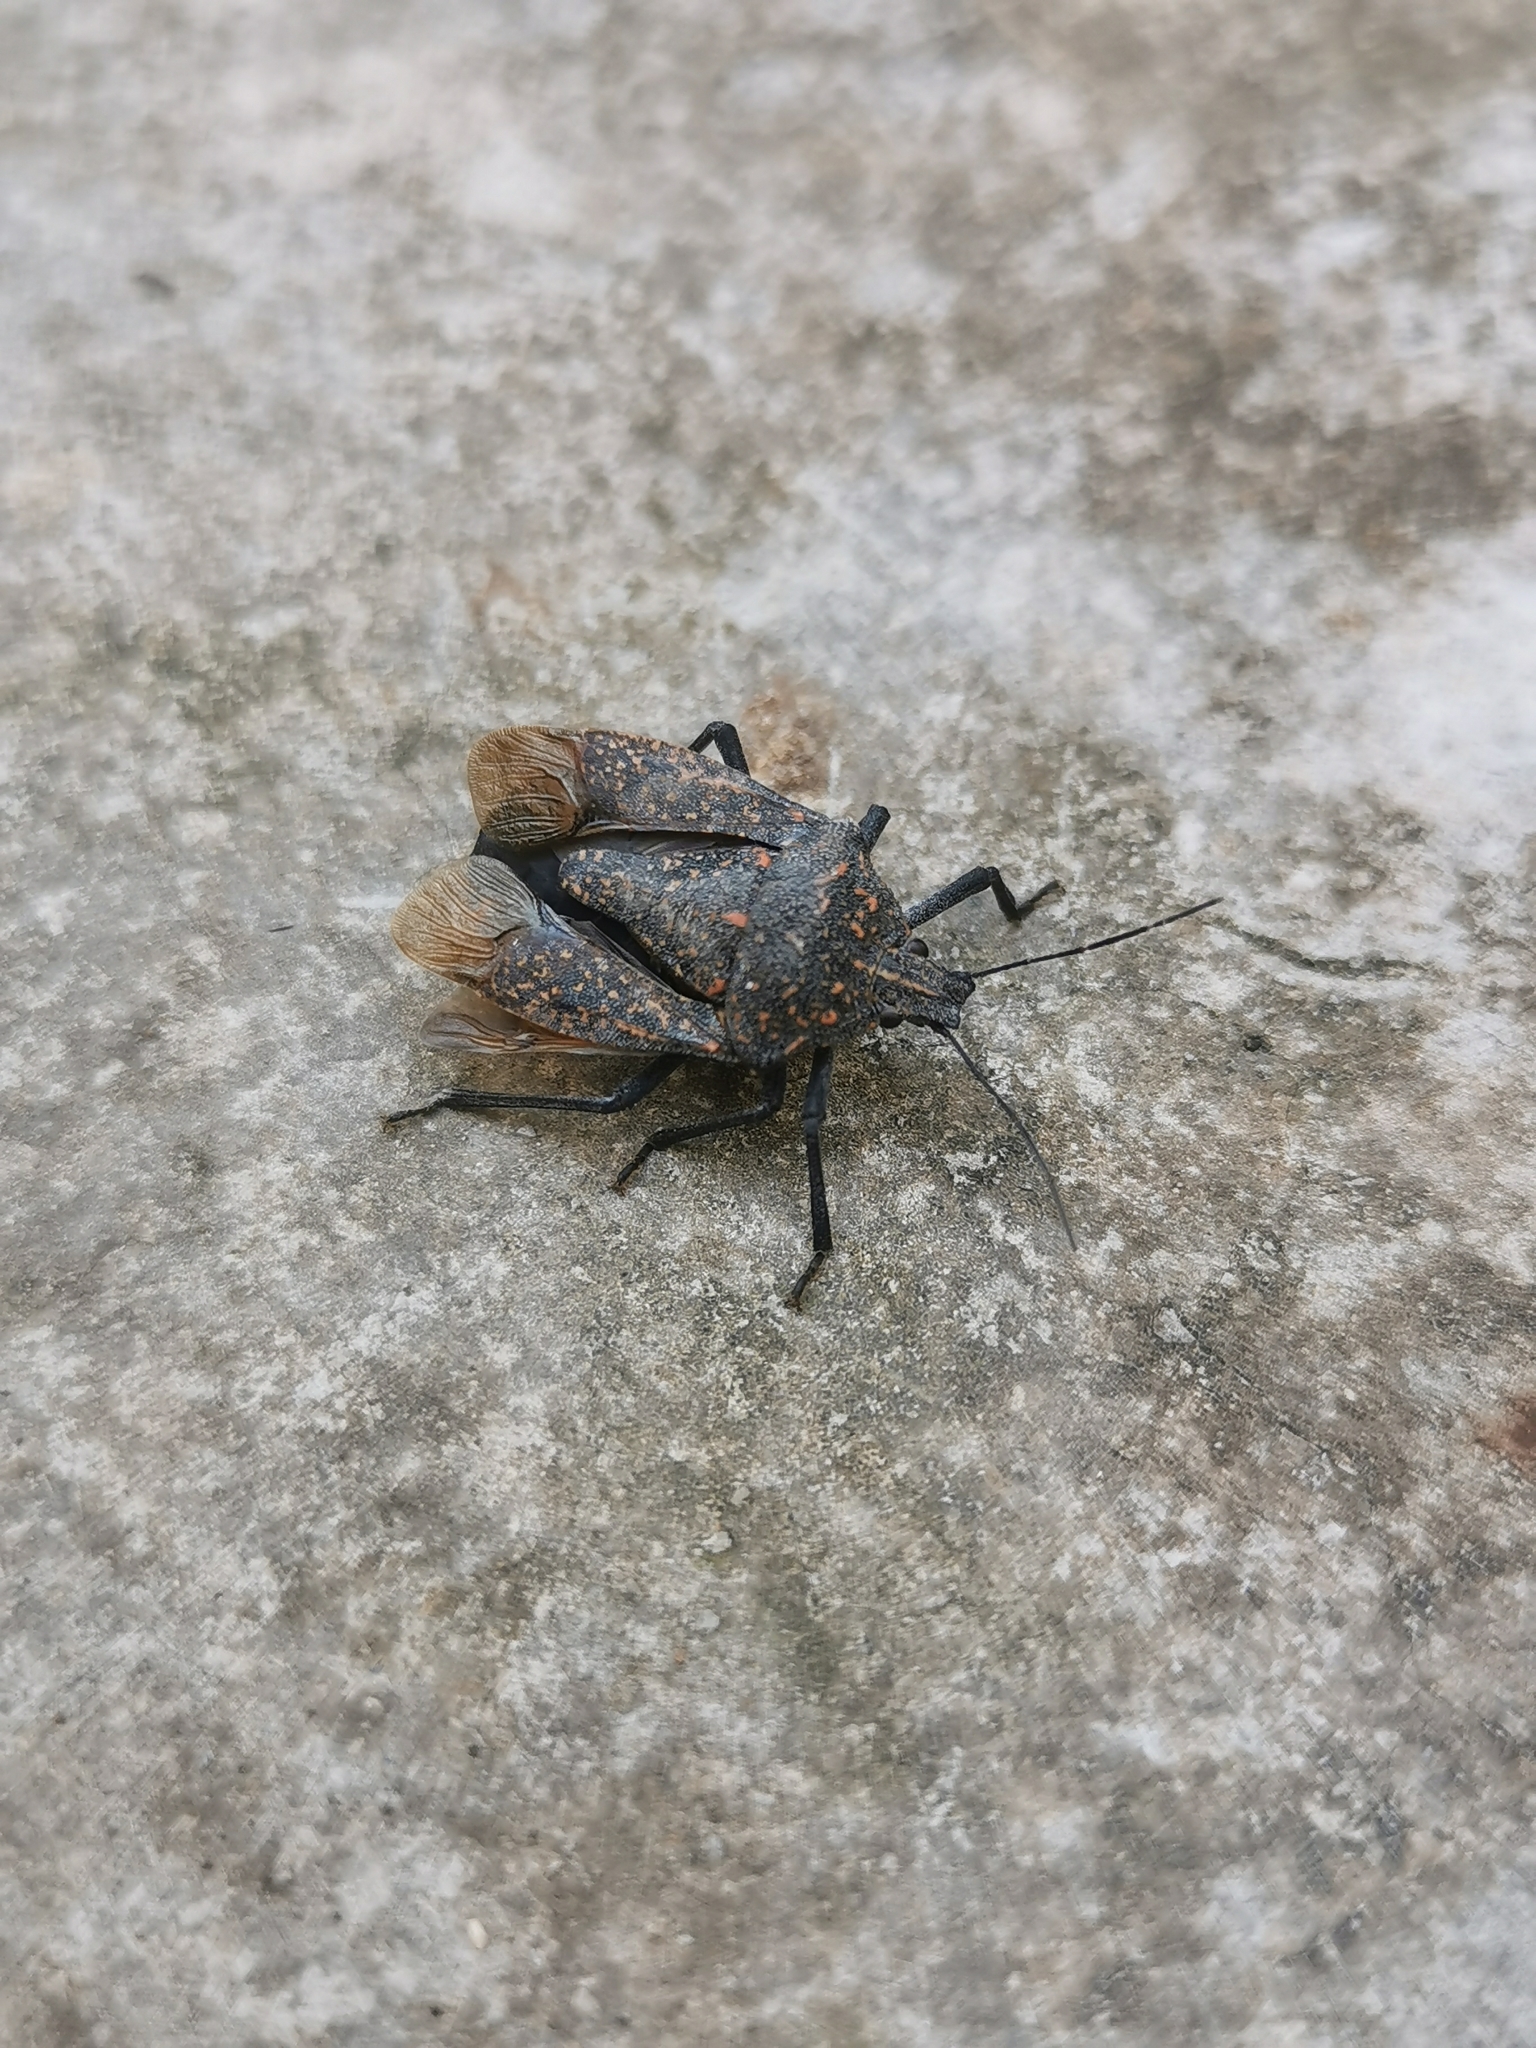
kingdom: Animalia
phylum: Arthropoda
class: Insecta
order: Hemiptera
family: Pentatomidae
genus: Apodiphus
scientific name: Apodiphus amygdali
